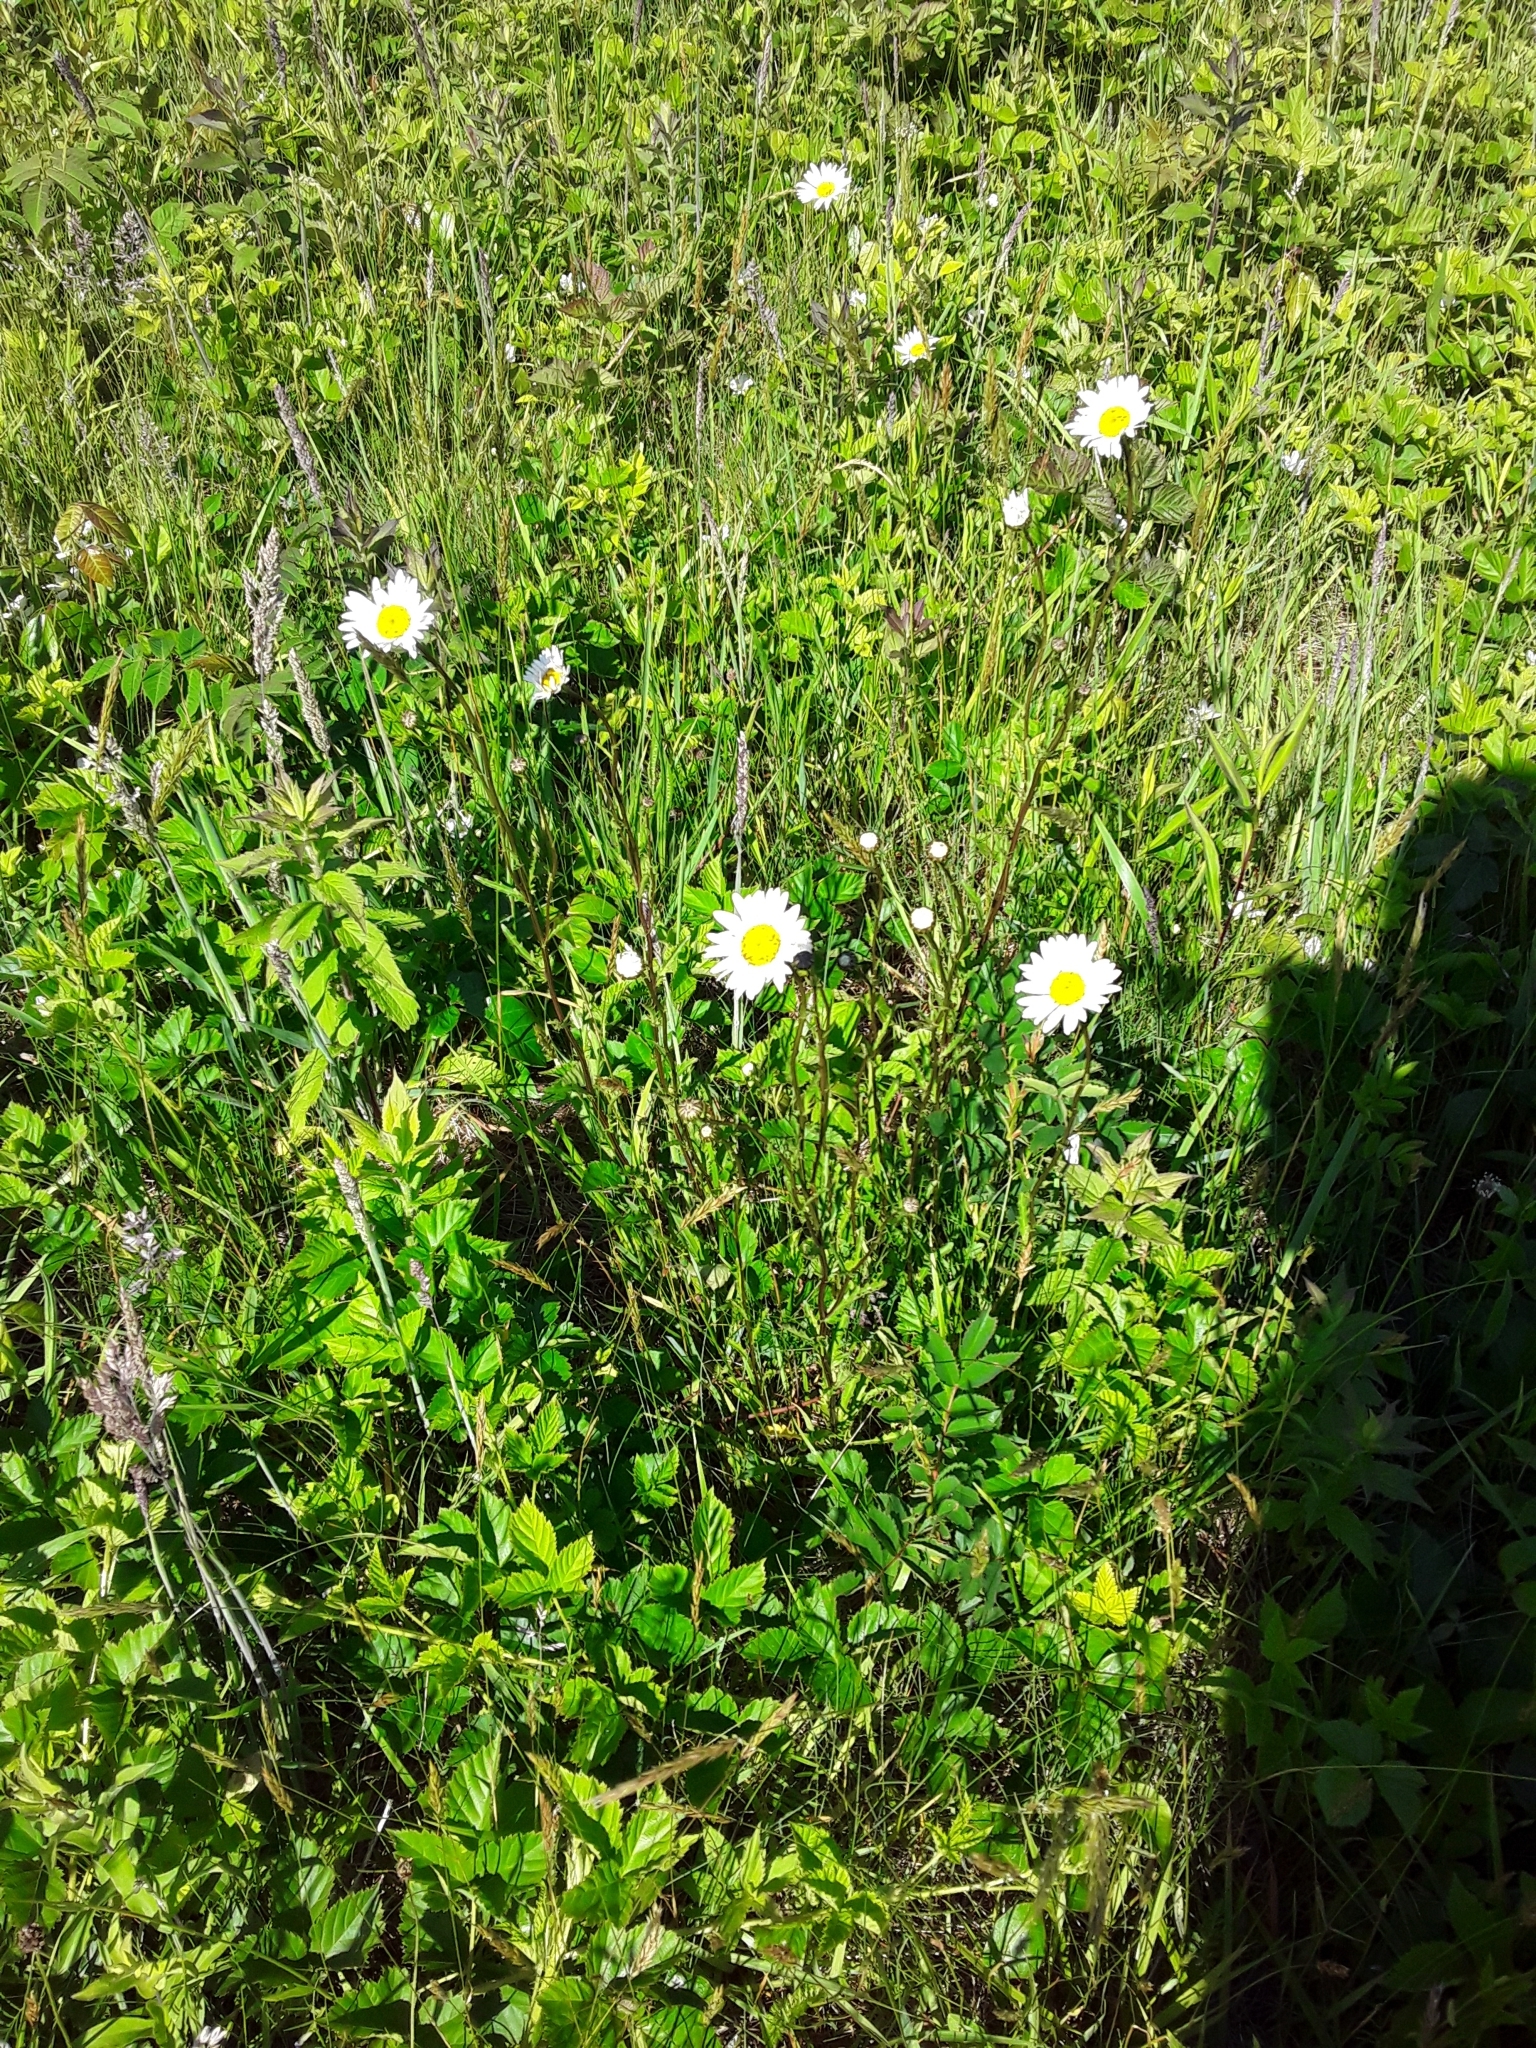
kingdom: Plantae
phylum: Tracheophyta
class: Magnoliopsida
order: Asterales
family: Asteraceae
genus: Leucanthemum
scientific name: Leucanthemum vulgare
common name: Oxeye daisy
